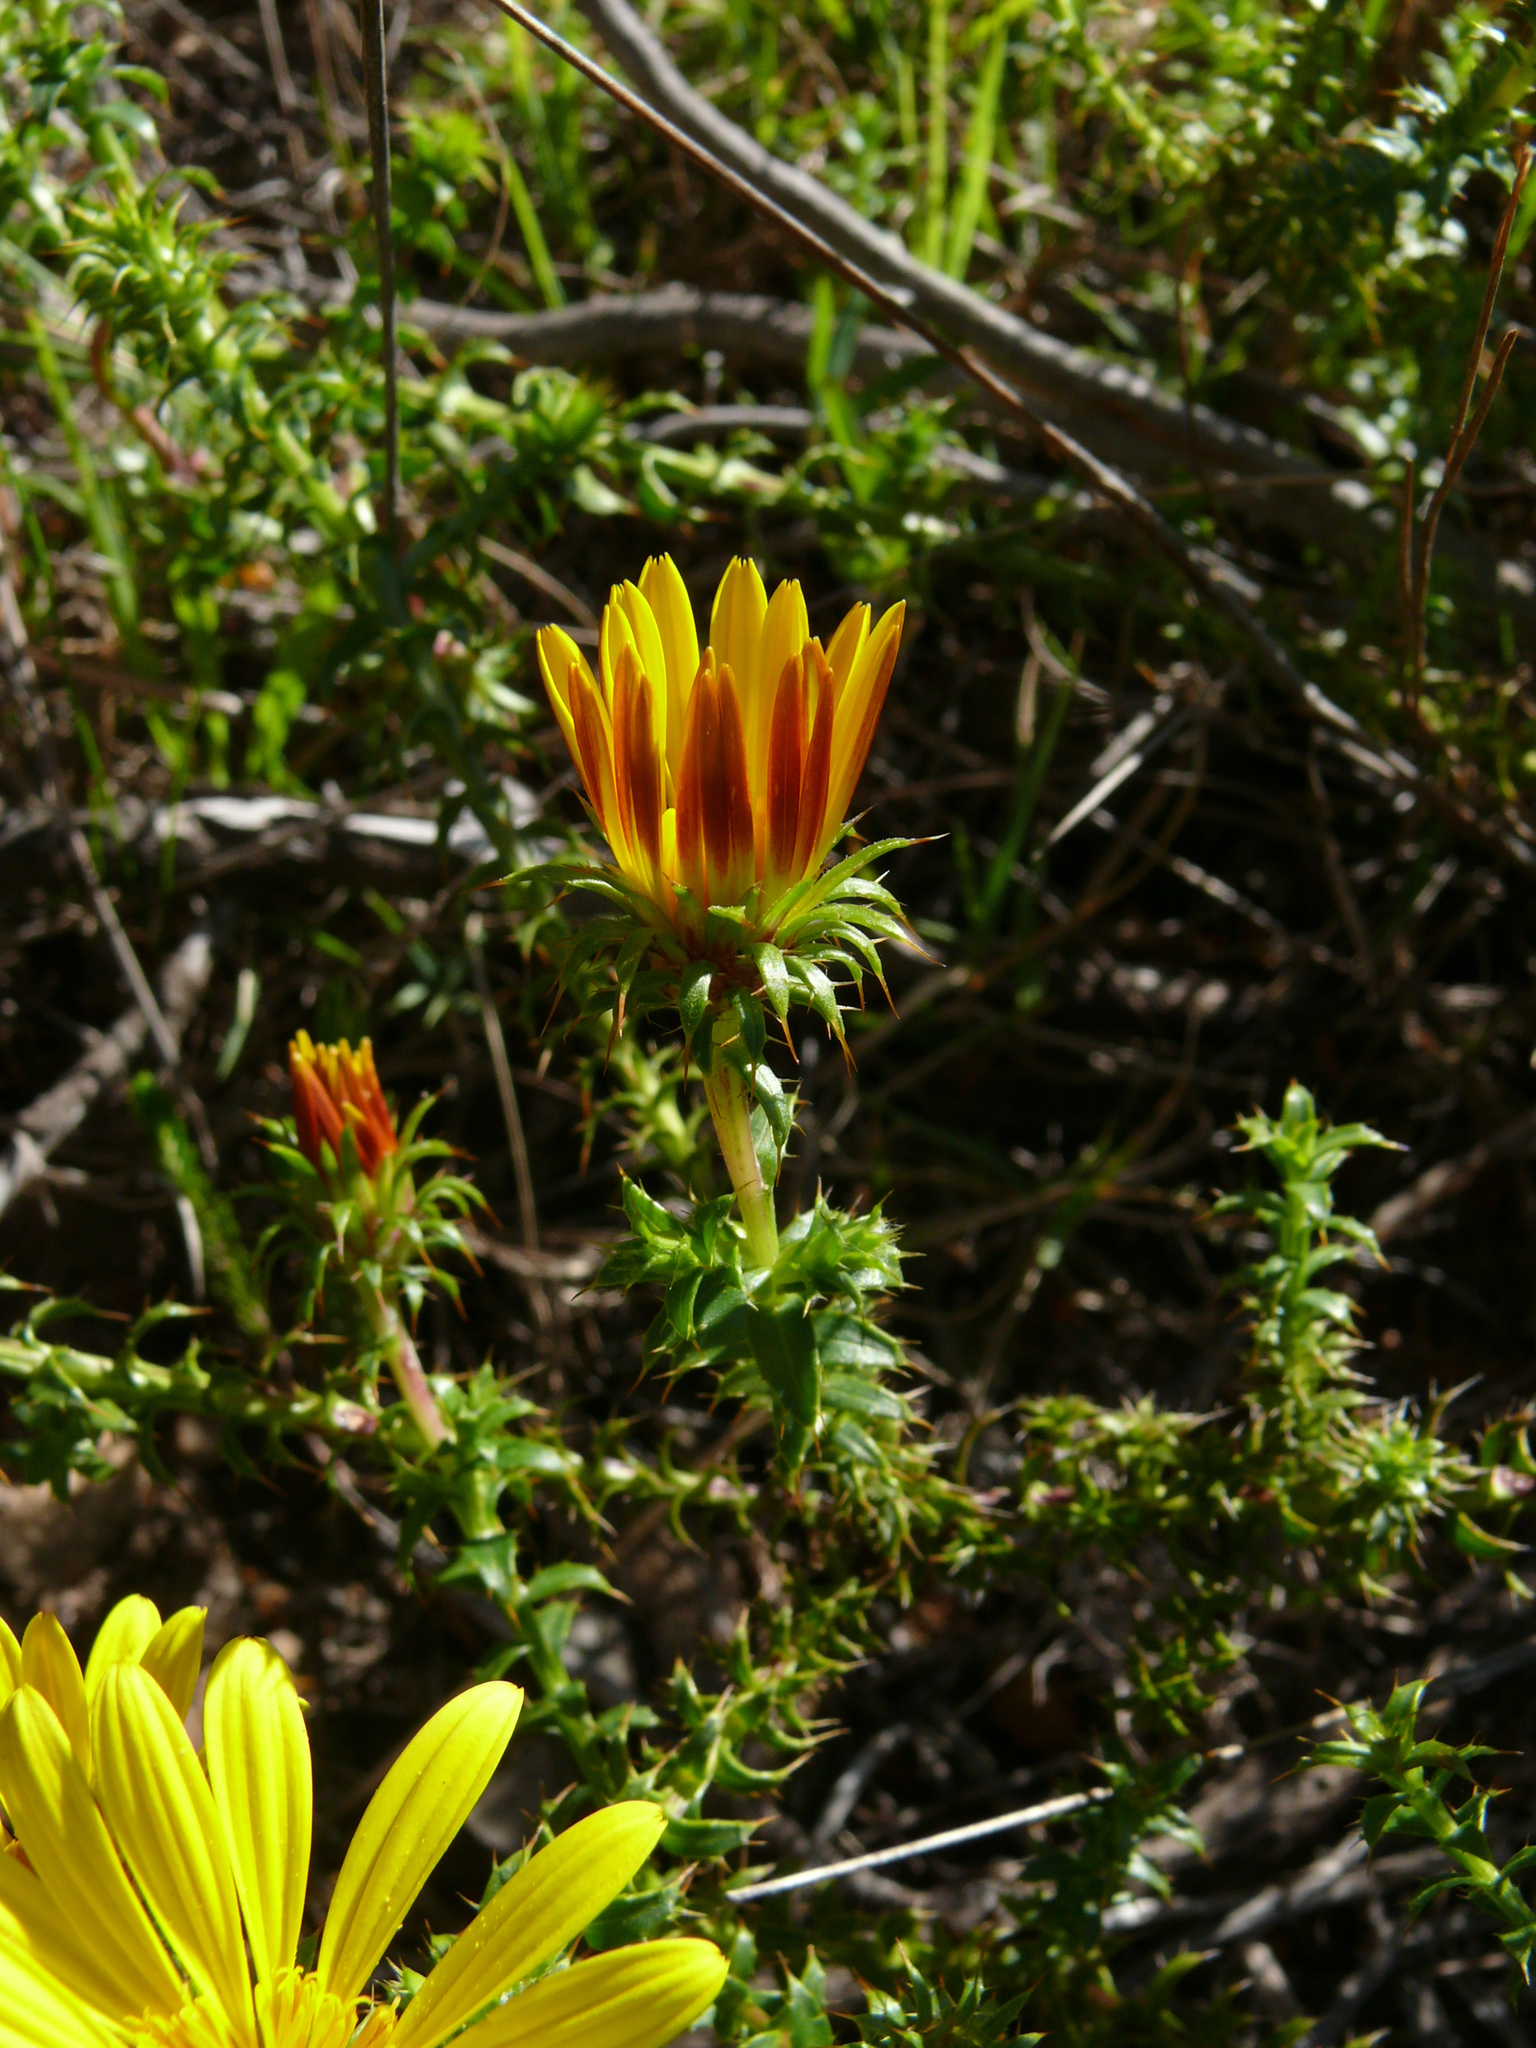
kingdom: Plantae
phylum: Tracheophyta
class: Magnoliopsida
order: Asterales
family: Asteraceae
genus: Cullumia
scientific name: Cullumia setosa
